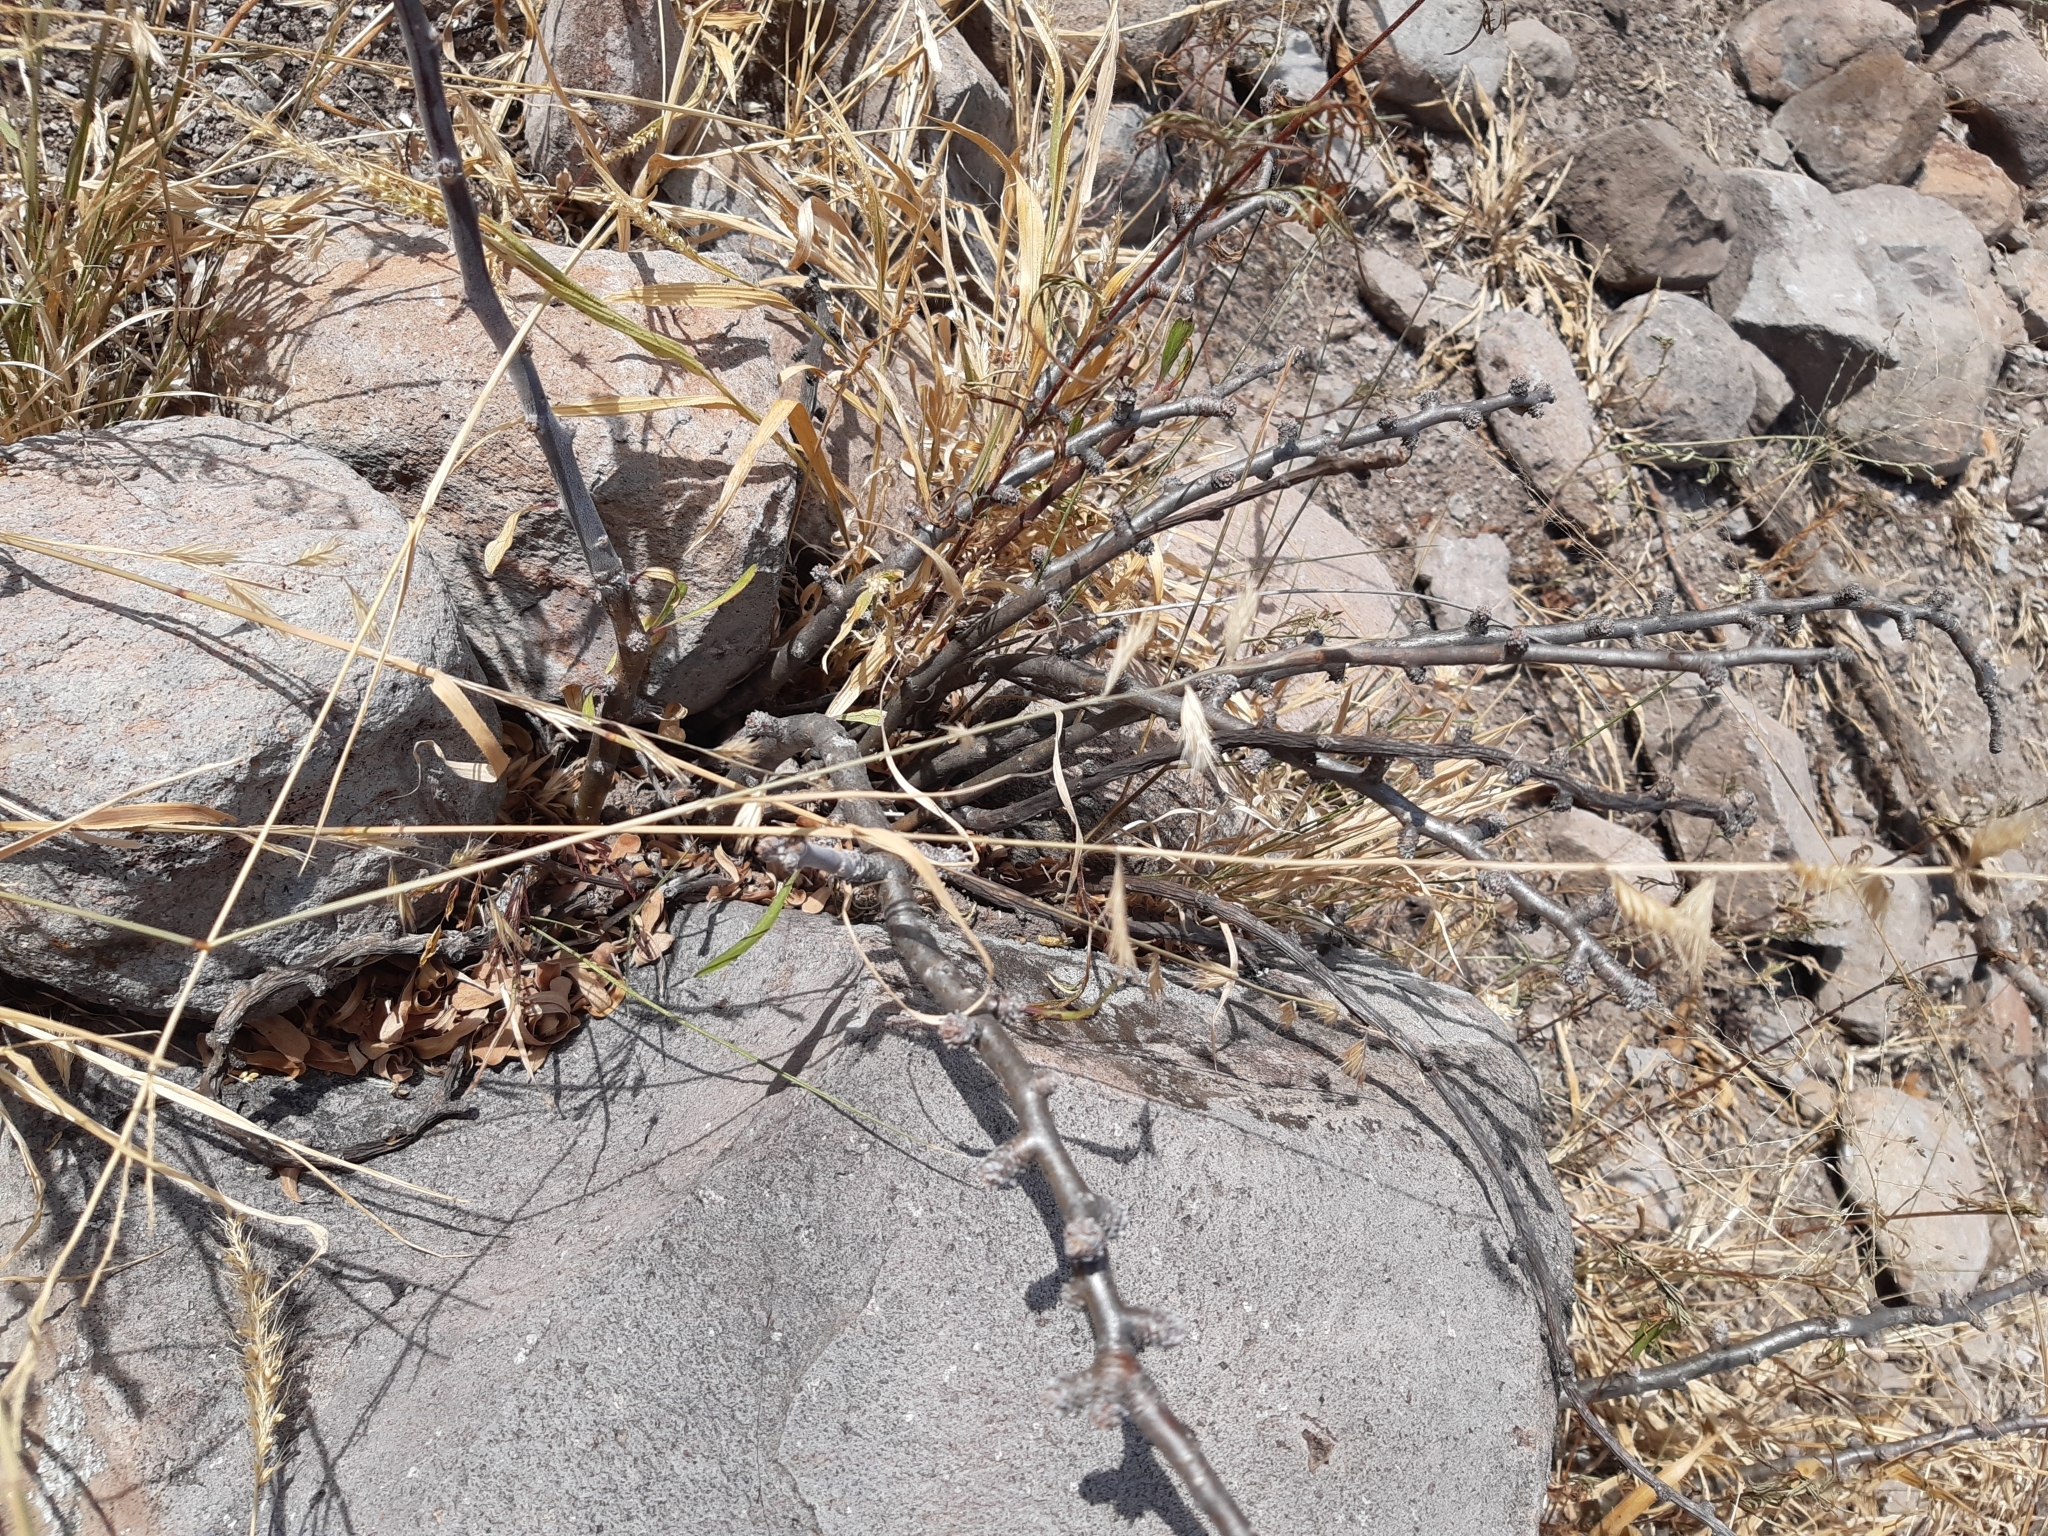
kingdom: Plantae
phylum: Tracheophyta
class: Magnoliopsida
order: Malpighiales
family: Euphorbiaceae
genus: Jatropha
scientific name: Jatropha dioica
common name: Leatherstem
